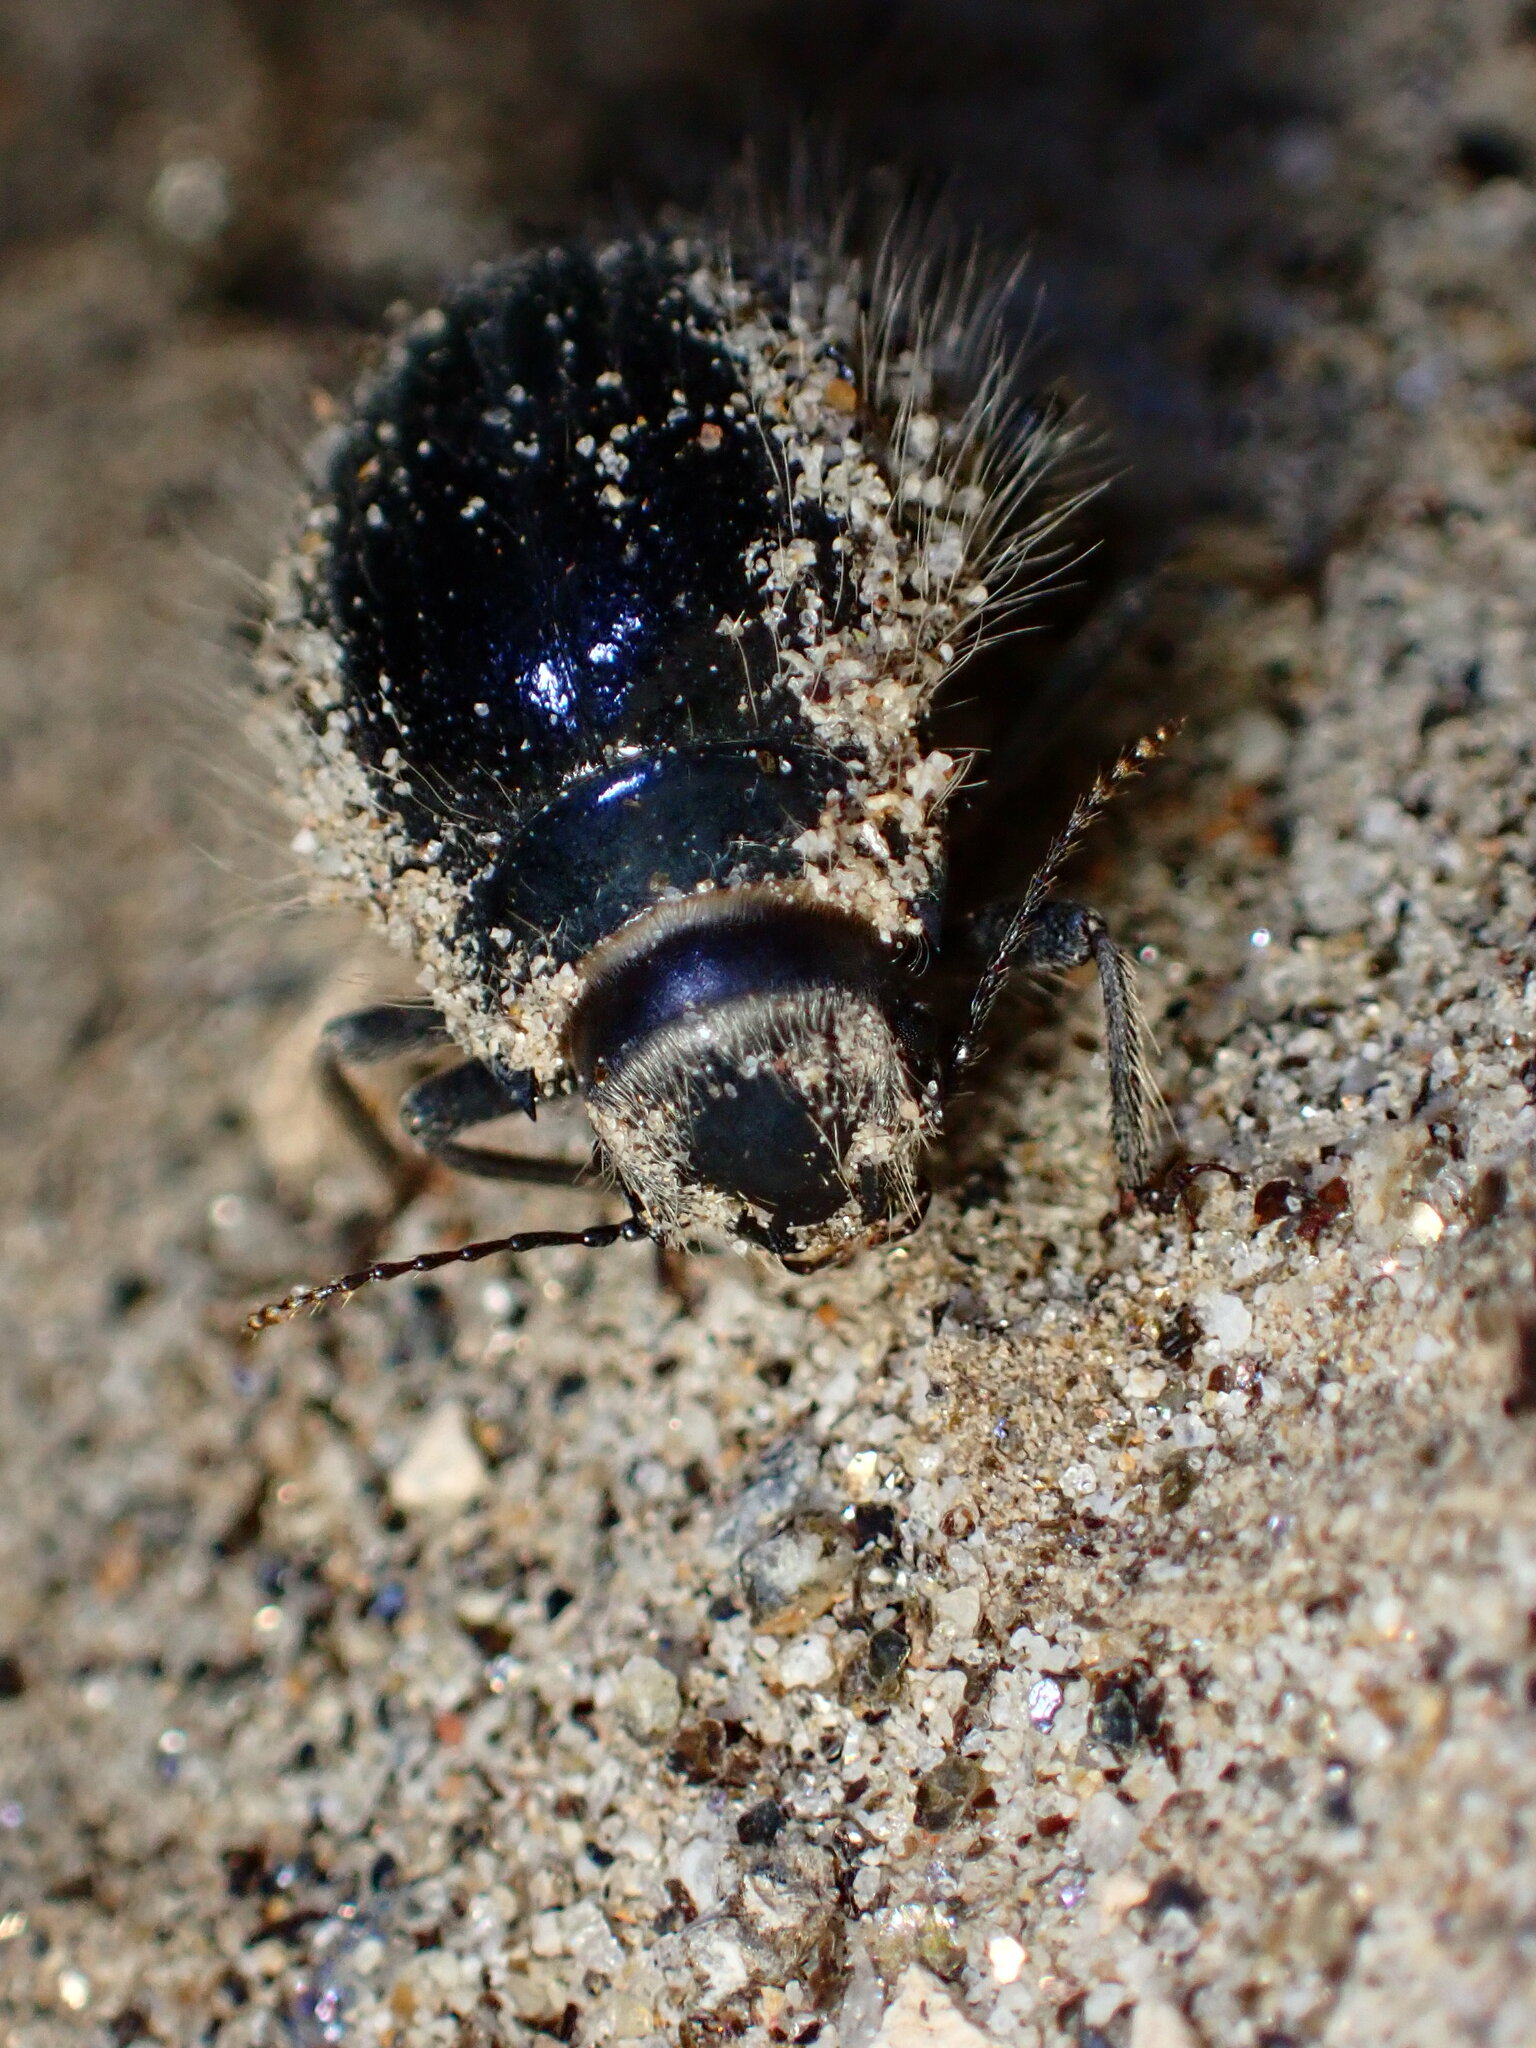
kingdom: Animalia
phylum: Arthropoda
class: Insecta
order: Coleoptera
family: Tenebrionidae
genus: Edrotes
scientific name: Edrotes ventricosus
